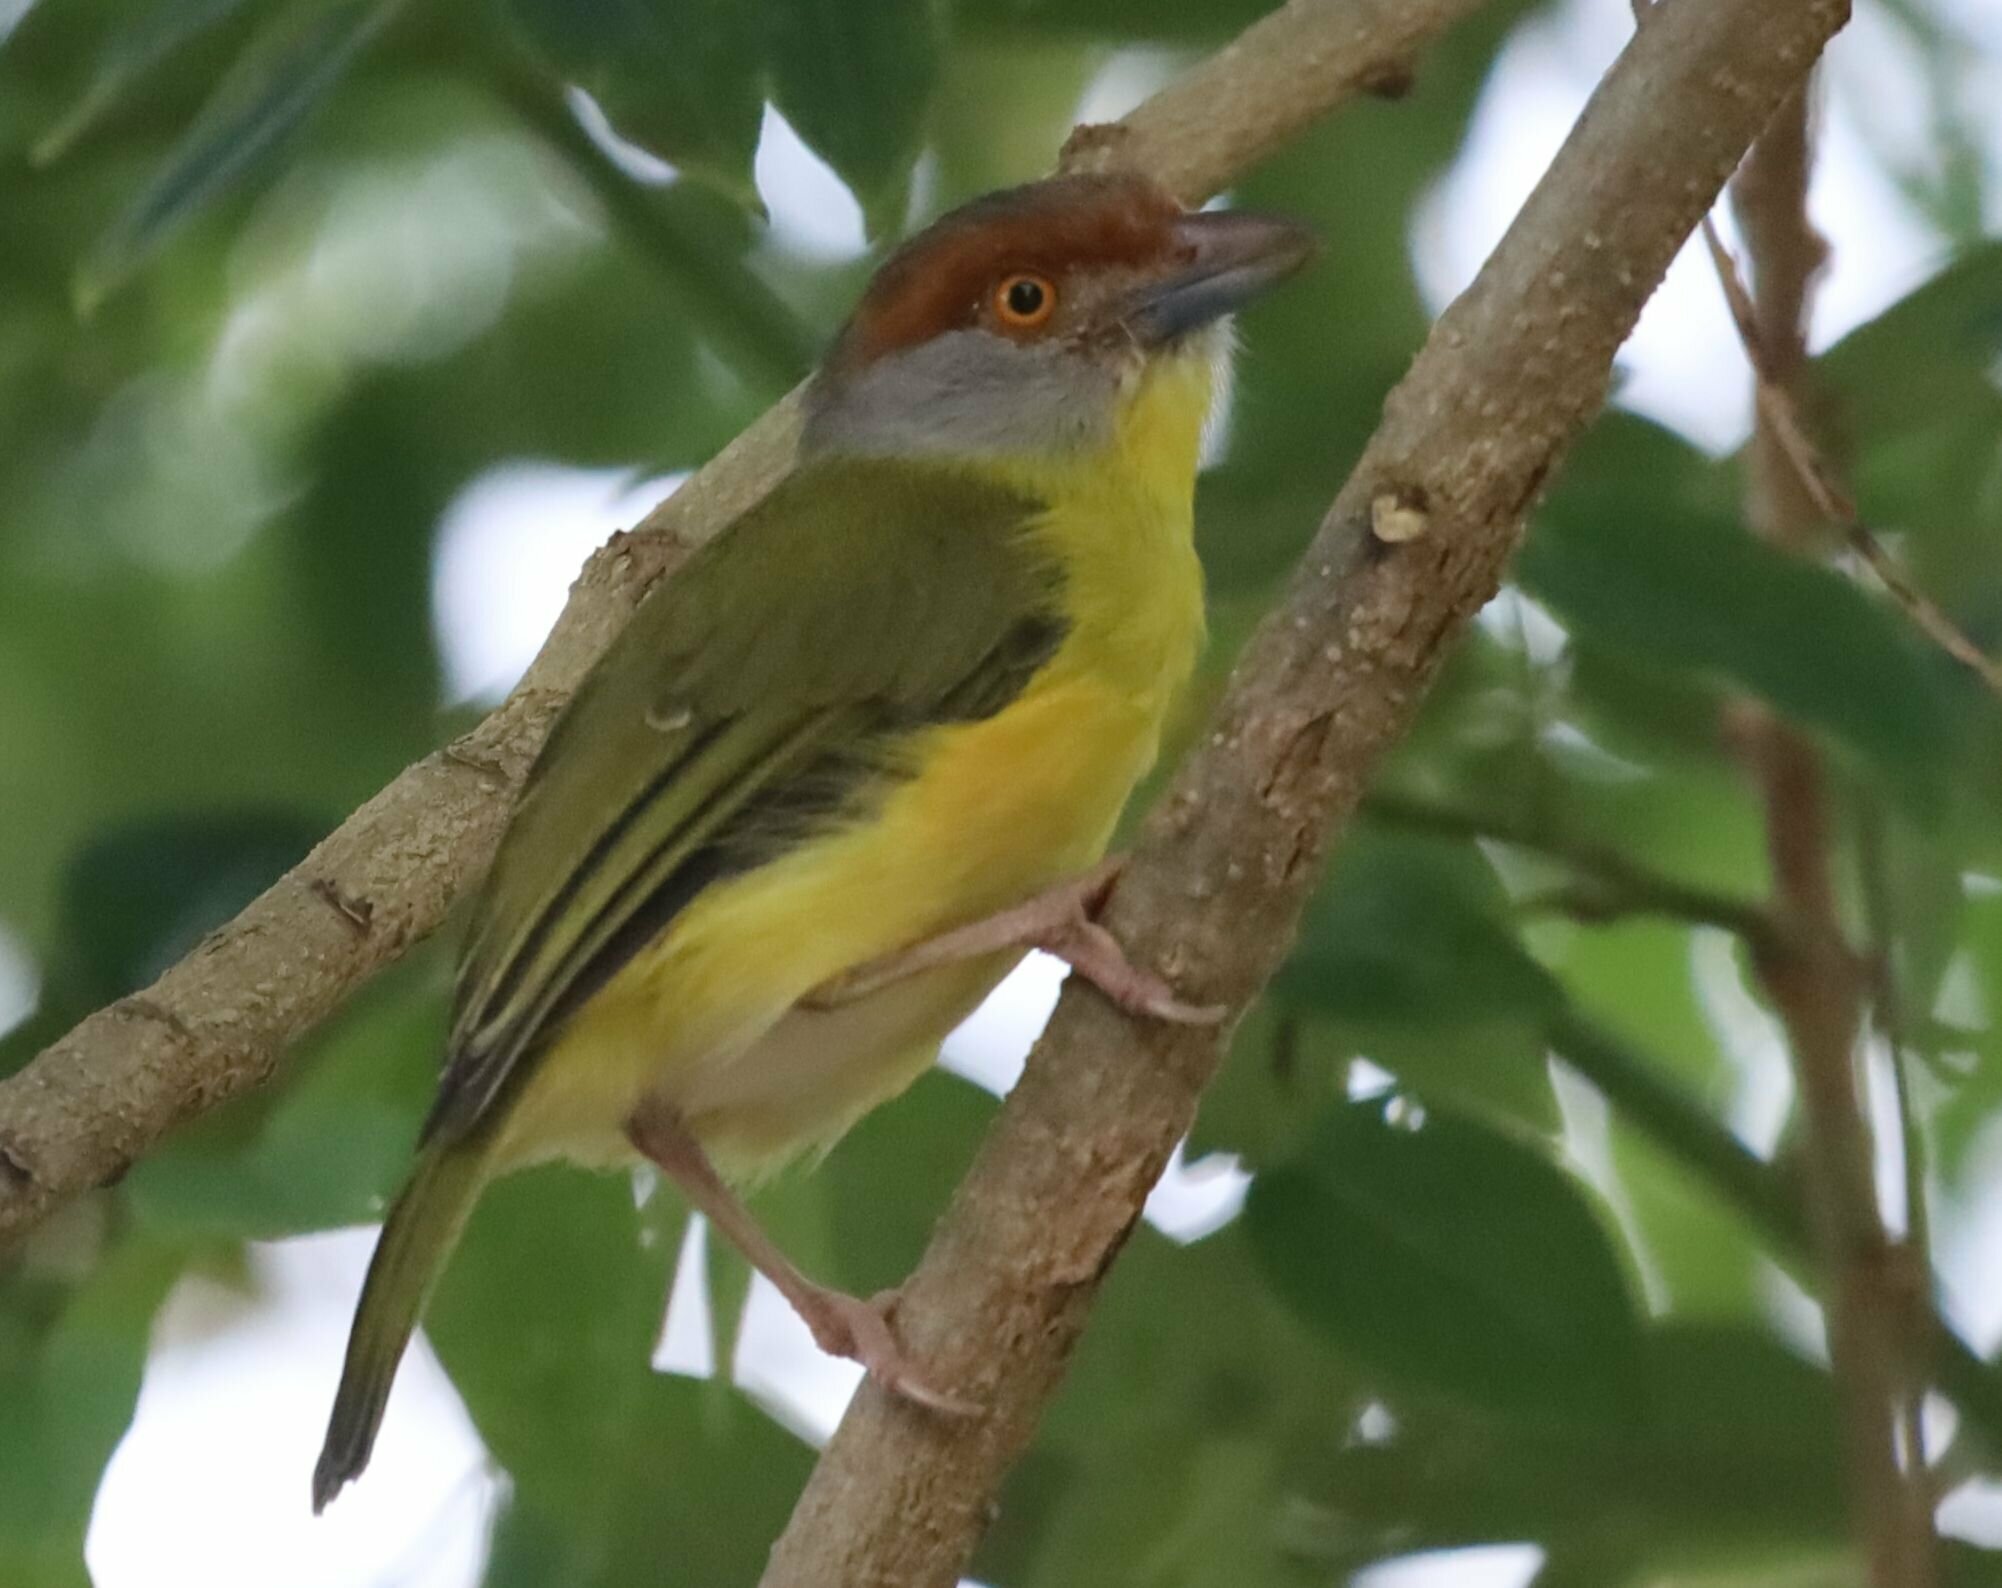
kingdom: Animalia
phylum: Chordata
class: Aves
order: Passeriformes
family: Vireonidae
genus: Cyclarhis
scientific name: Cyclarhis gujanensis
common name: Rufous-browed peppershrike
